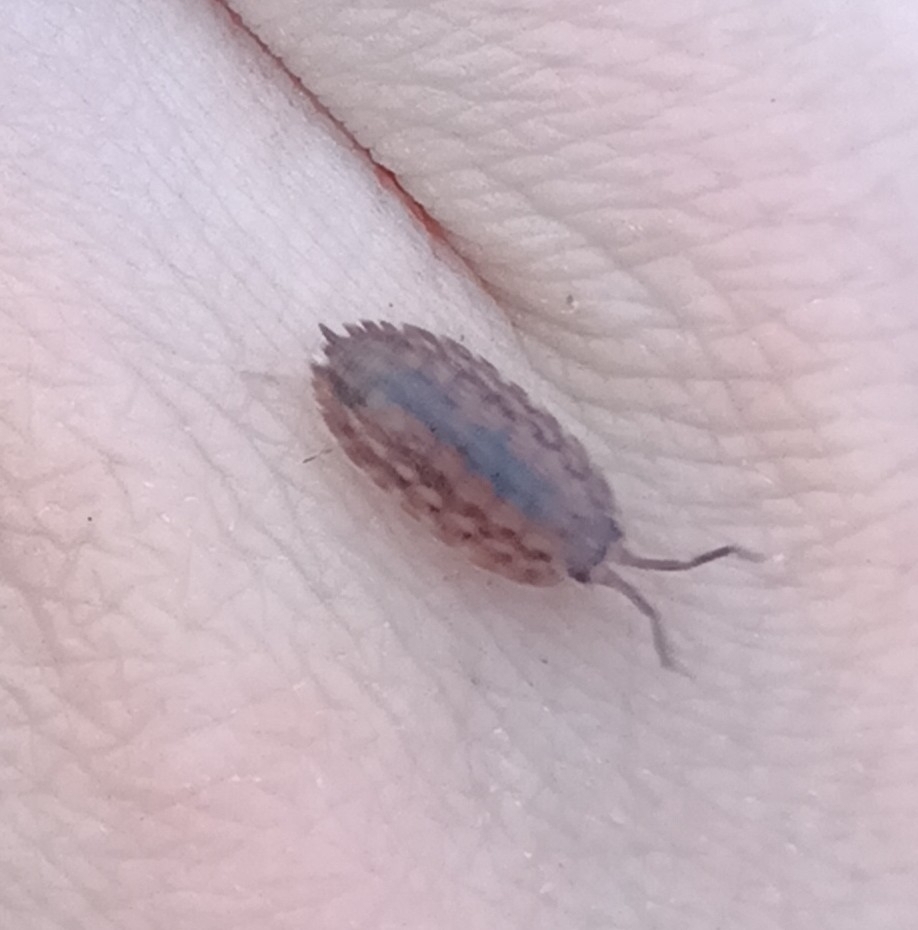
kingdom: Animalia
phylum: Arthropoda
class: Malacostraca
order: Isopoda
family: Trachelipodidae
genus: Trachelipus
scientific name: Trachelipus rathkii
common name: Isopod
